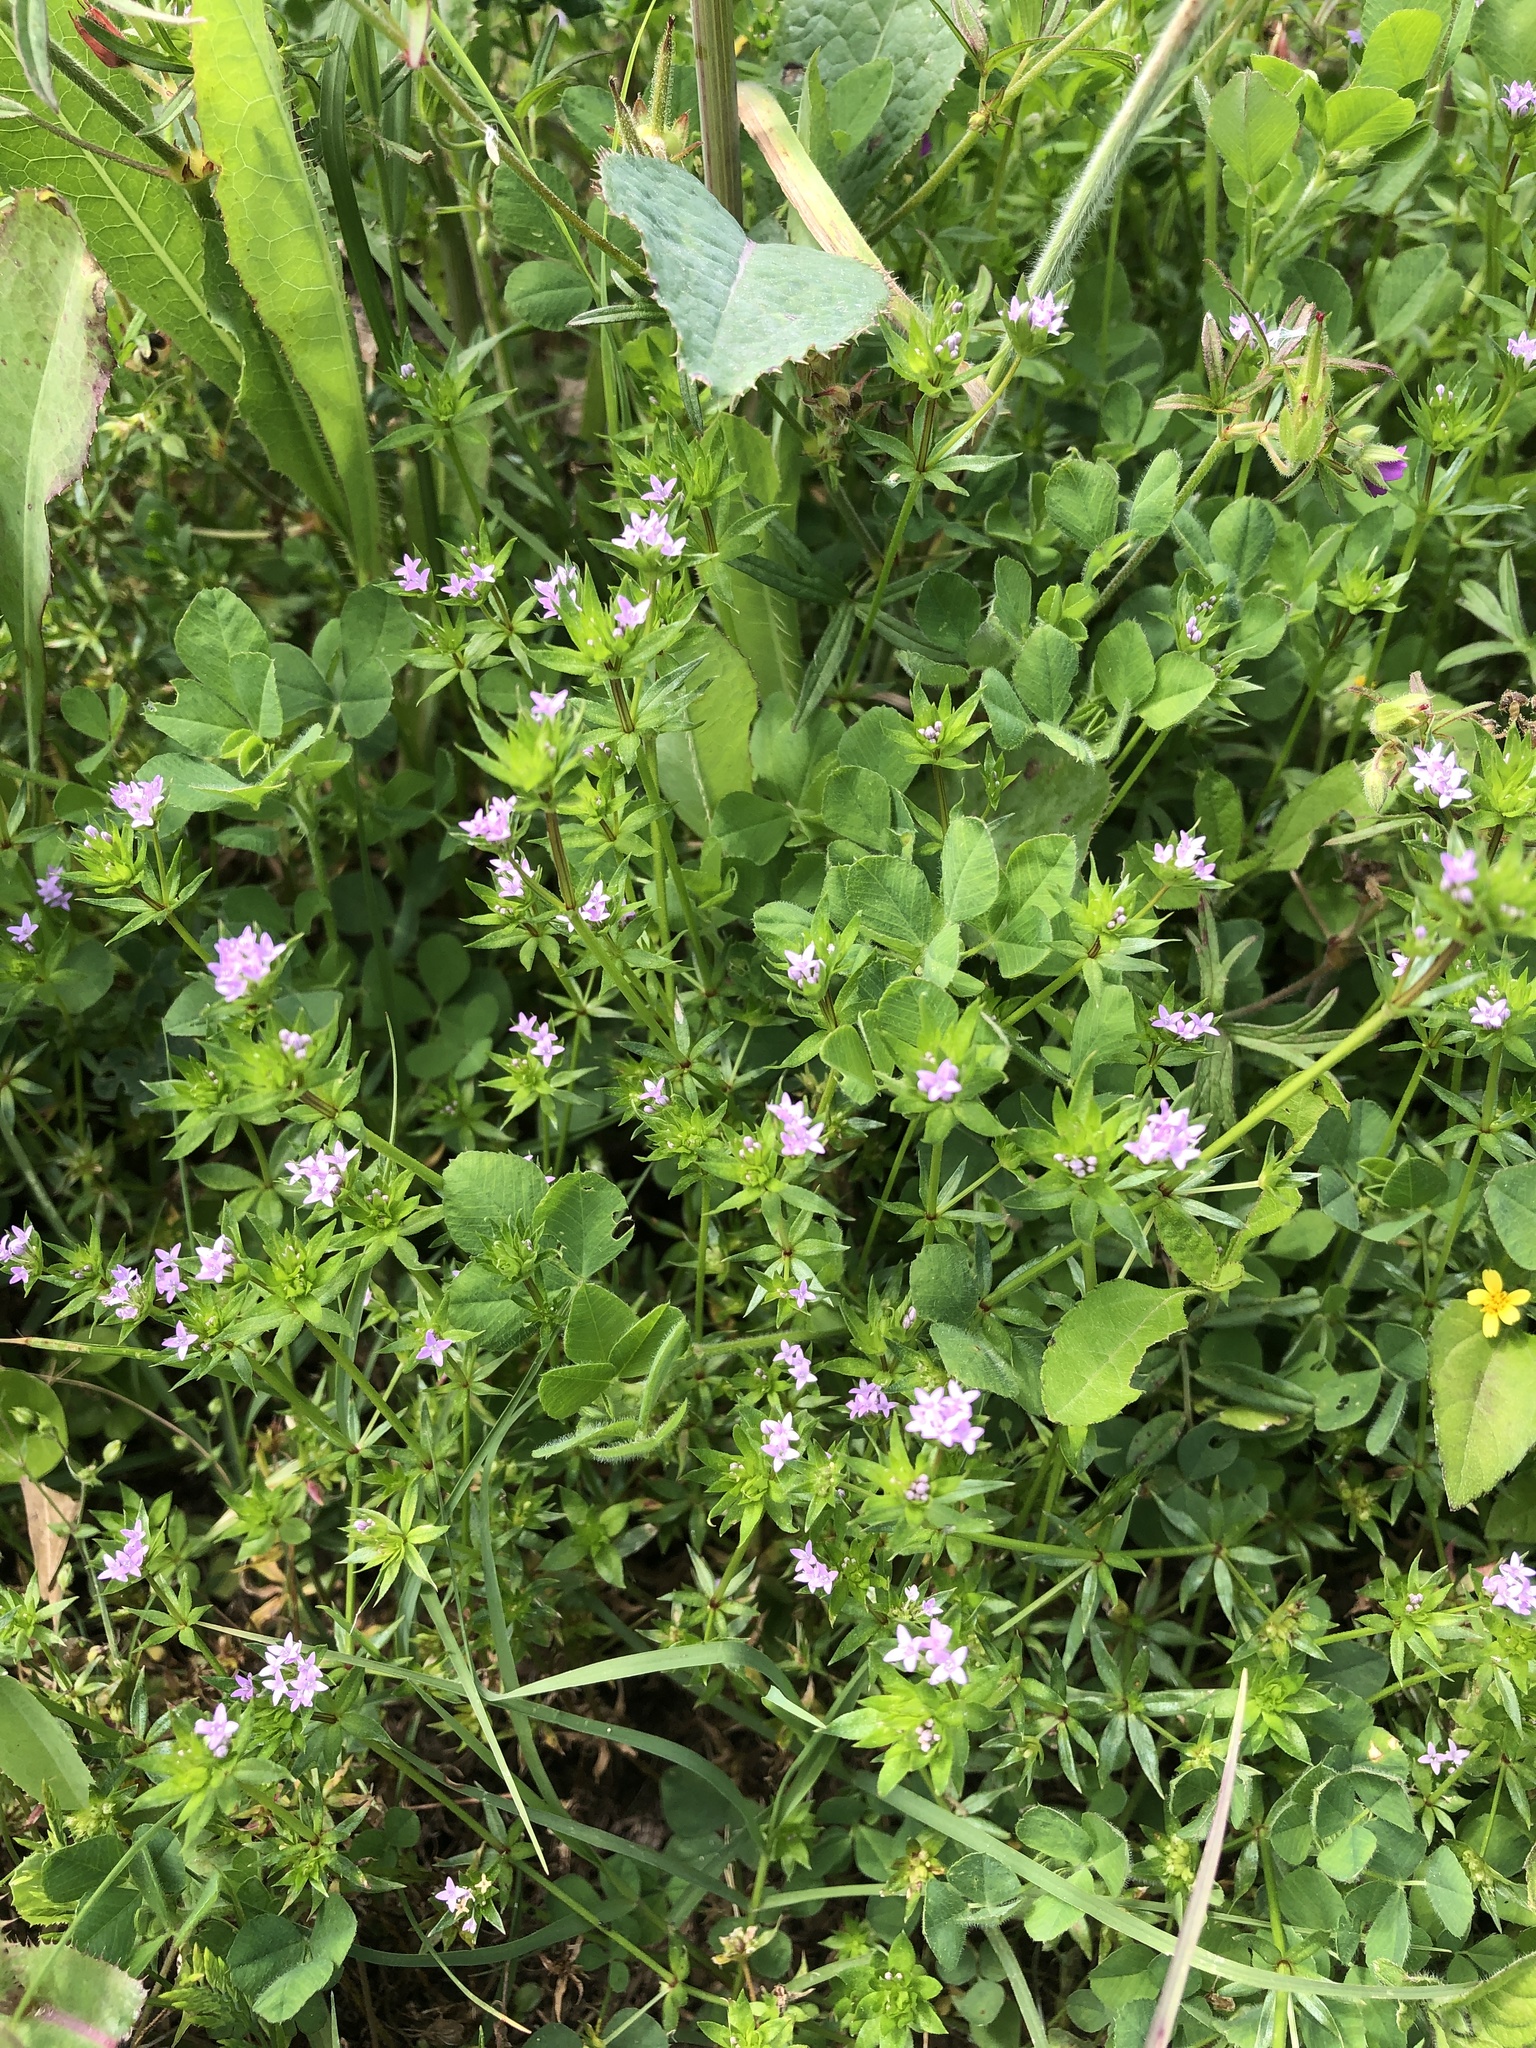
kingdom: Plantae
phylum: Tracheophyta
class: Magnoliopsida
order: Gentianales
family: Rubiaceae
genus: Sherardia
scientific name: Sherardia arvensis
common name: Field madder
